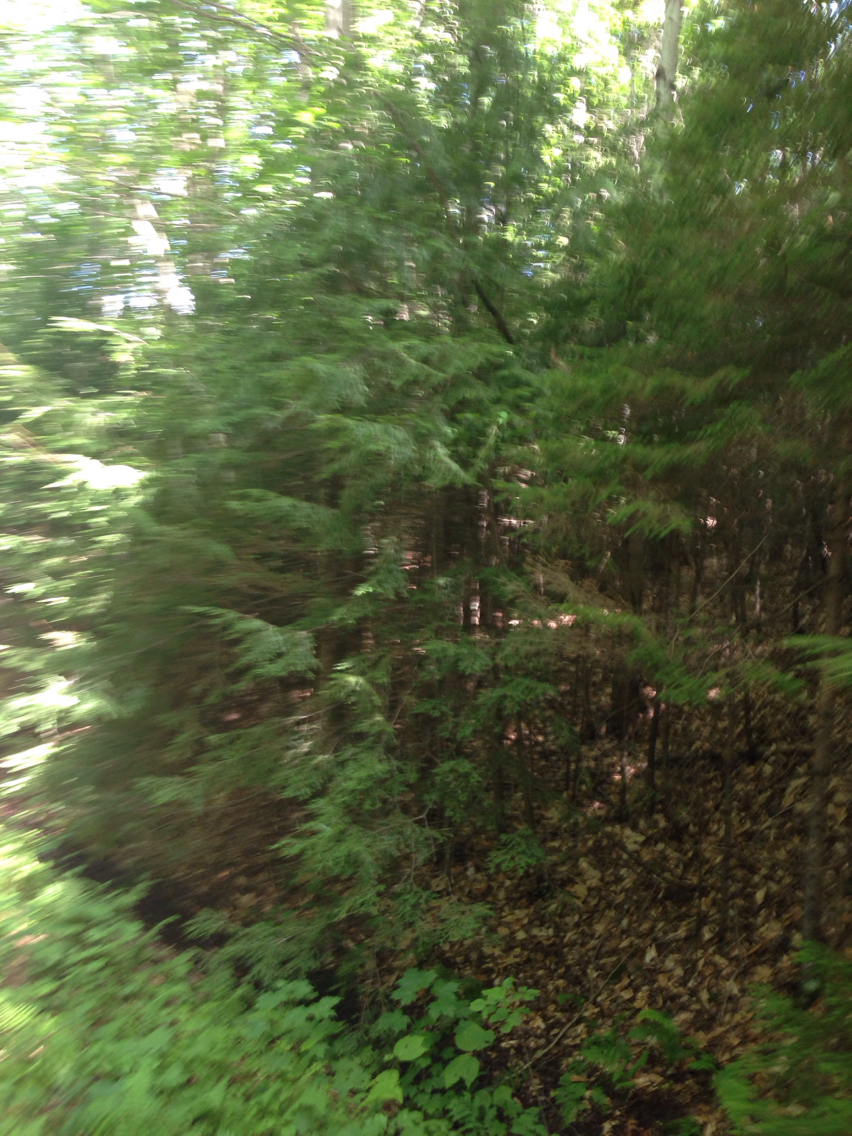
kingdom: Plantae
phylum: Tracheophyta
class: Pinopsida
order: Pinales
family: Pinaceae
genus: Tsuga
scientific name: Tsuga canadensis
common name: Eastern hemlock
